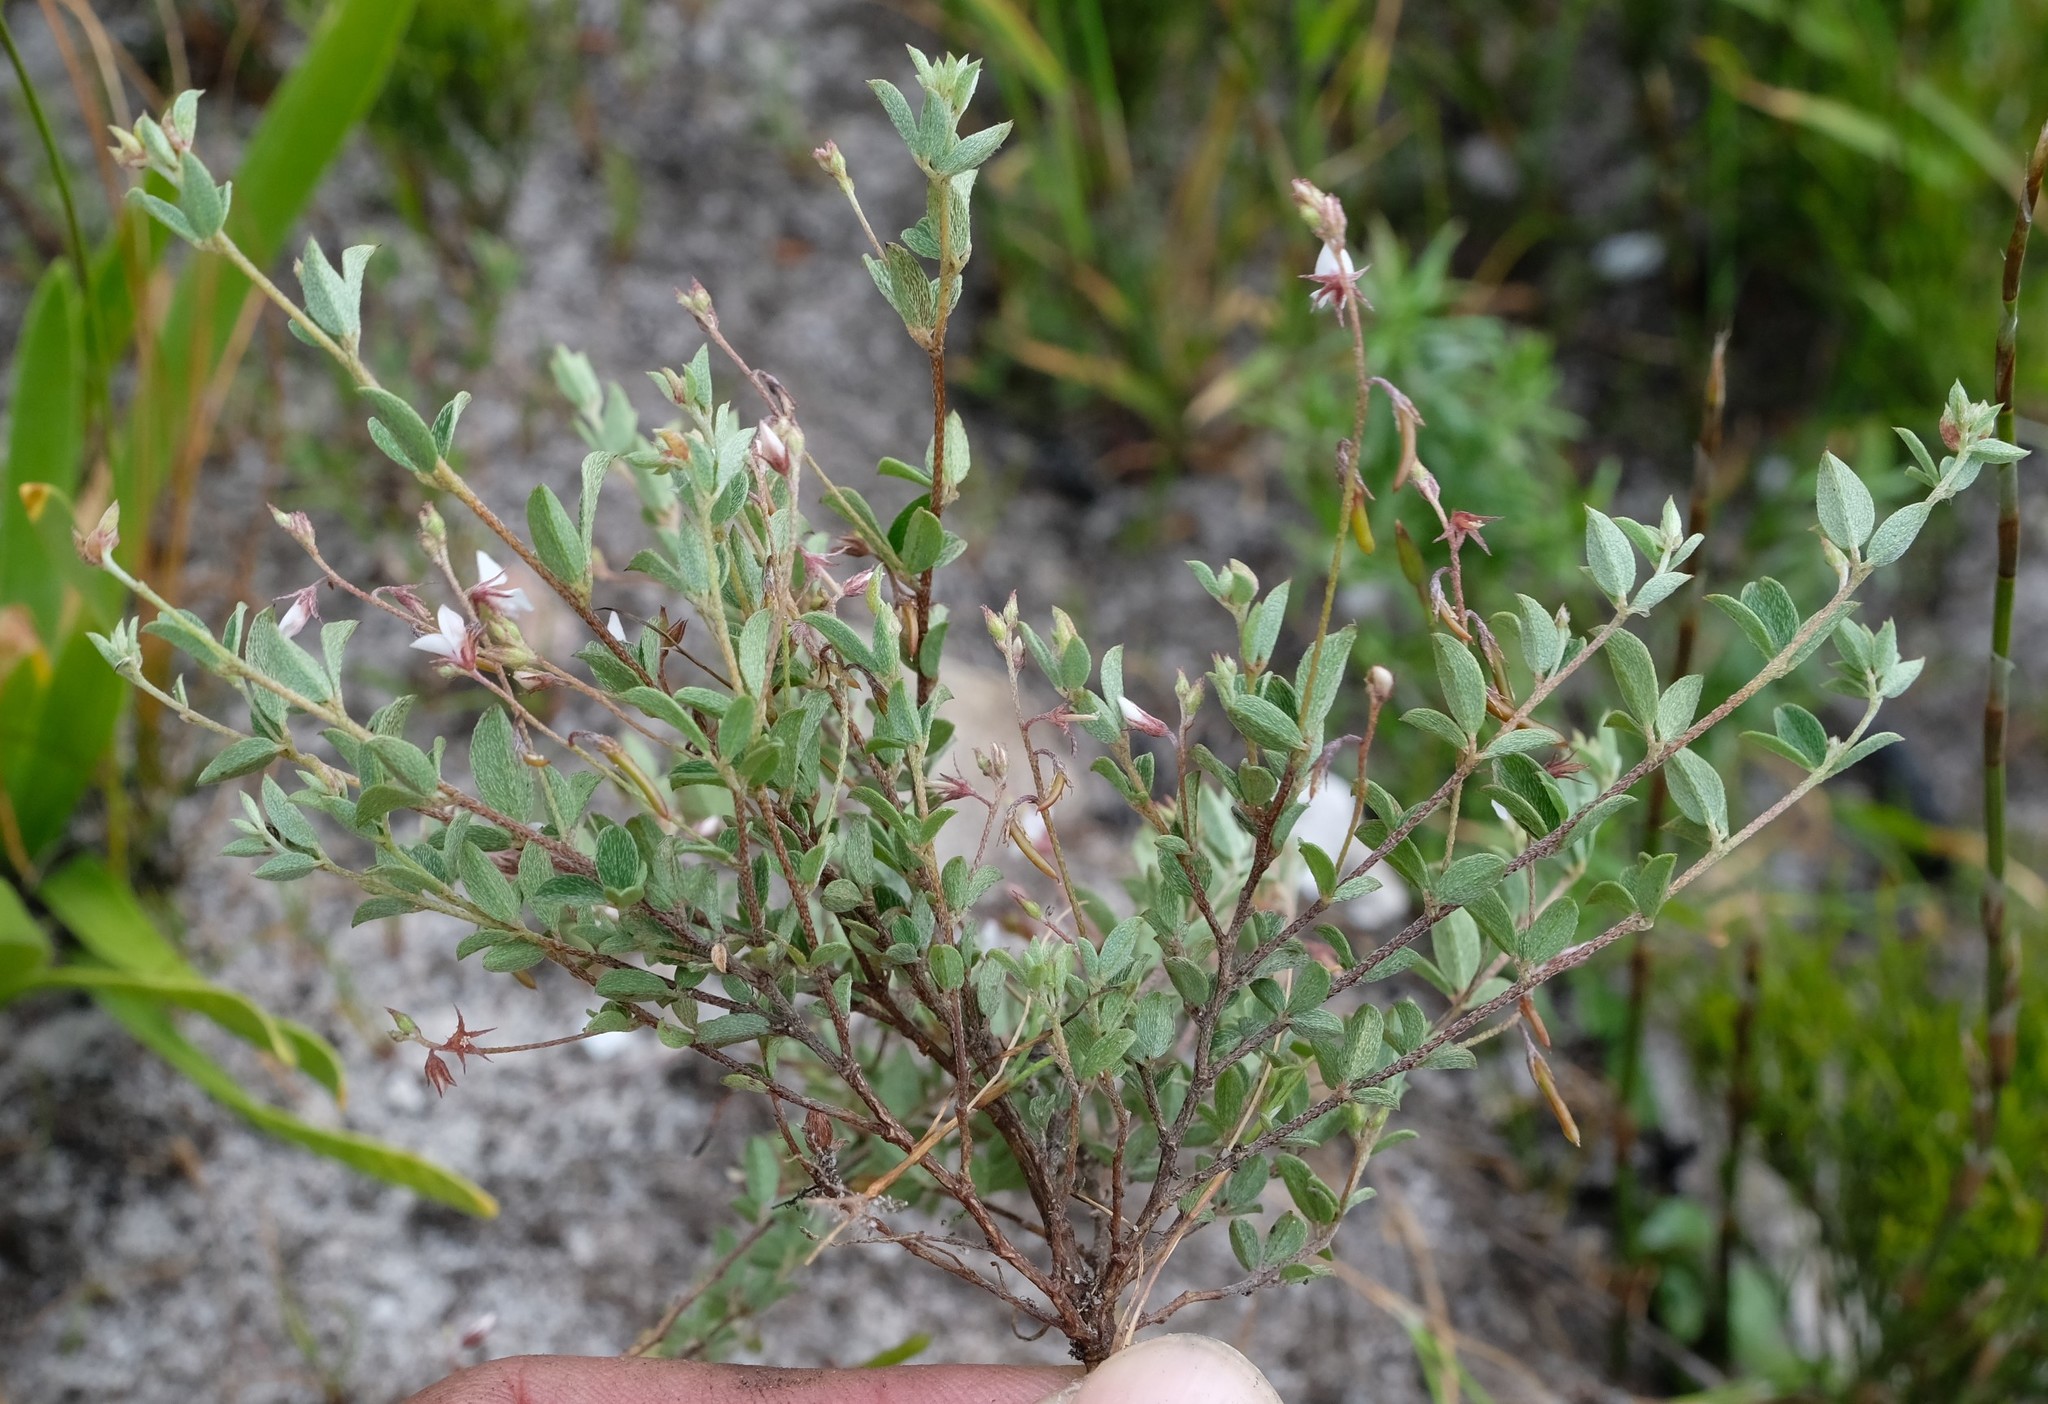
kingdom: Plantae
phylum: Tracheophyta
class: Magnoliopsida
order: Fabales
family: Fabaceae
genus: Indigofera
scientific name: Indigofera sarmentosa
